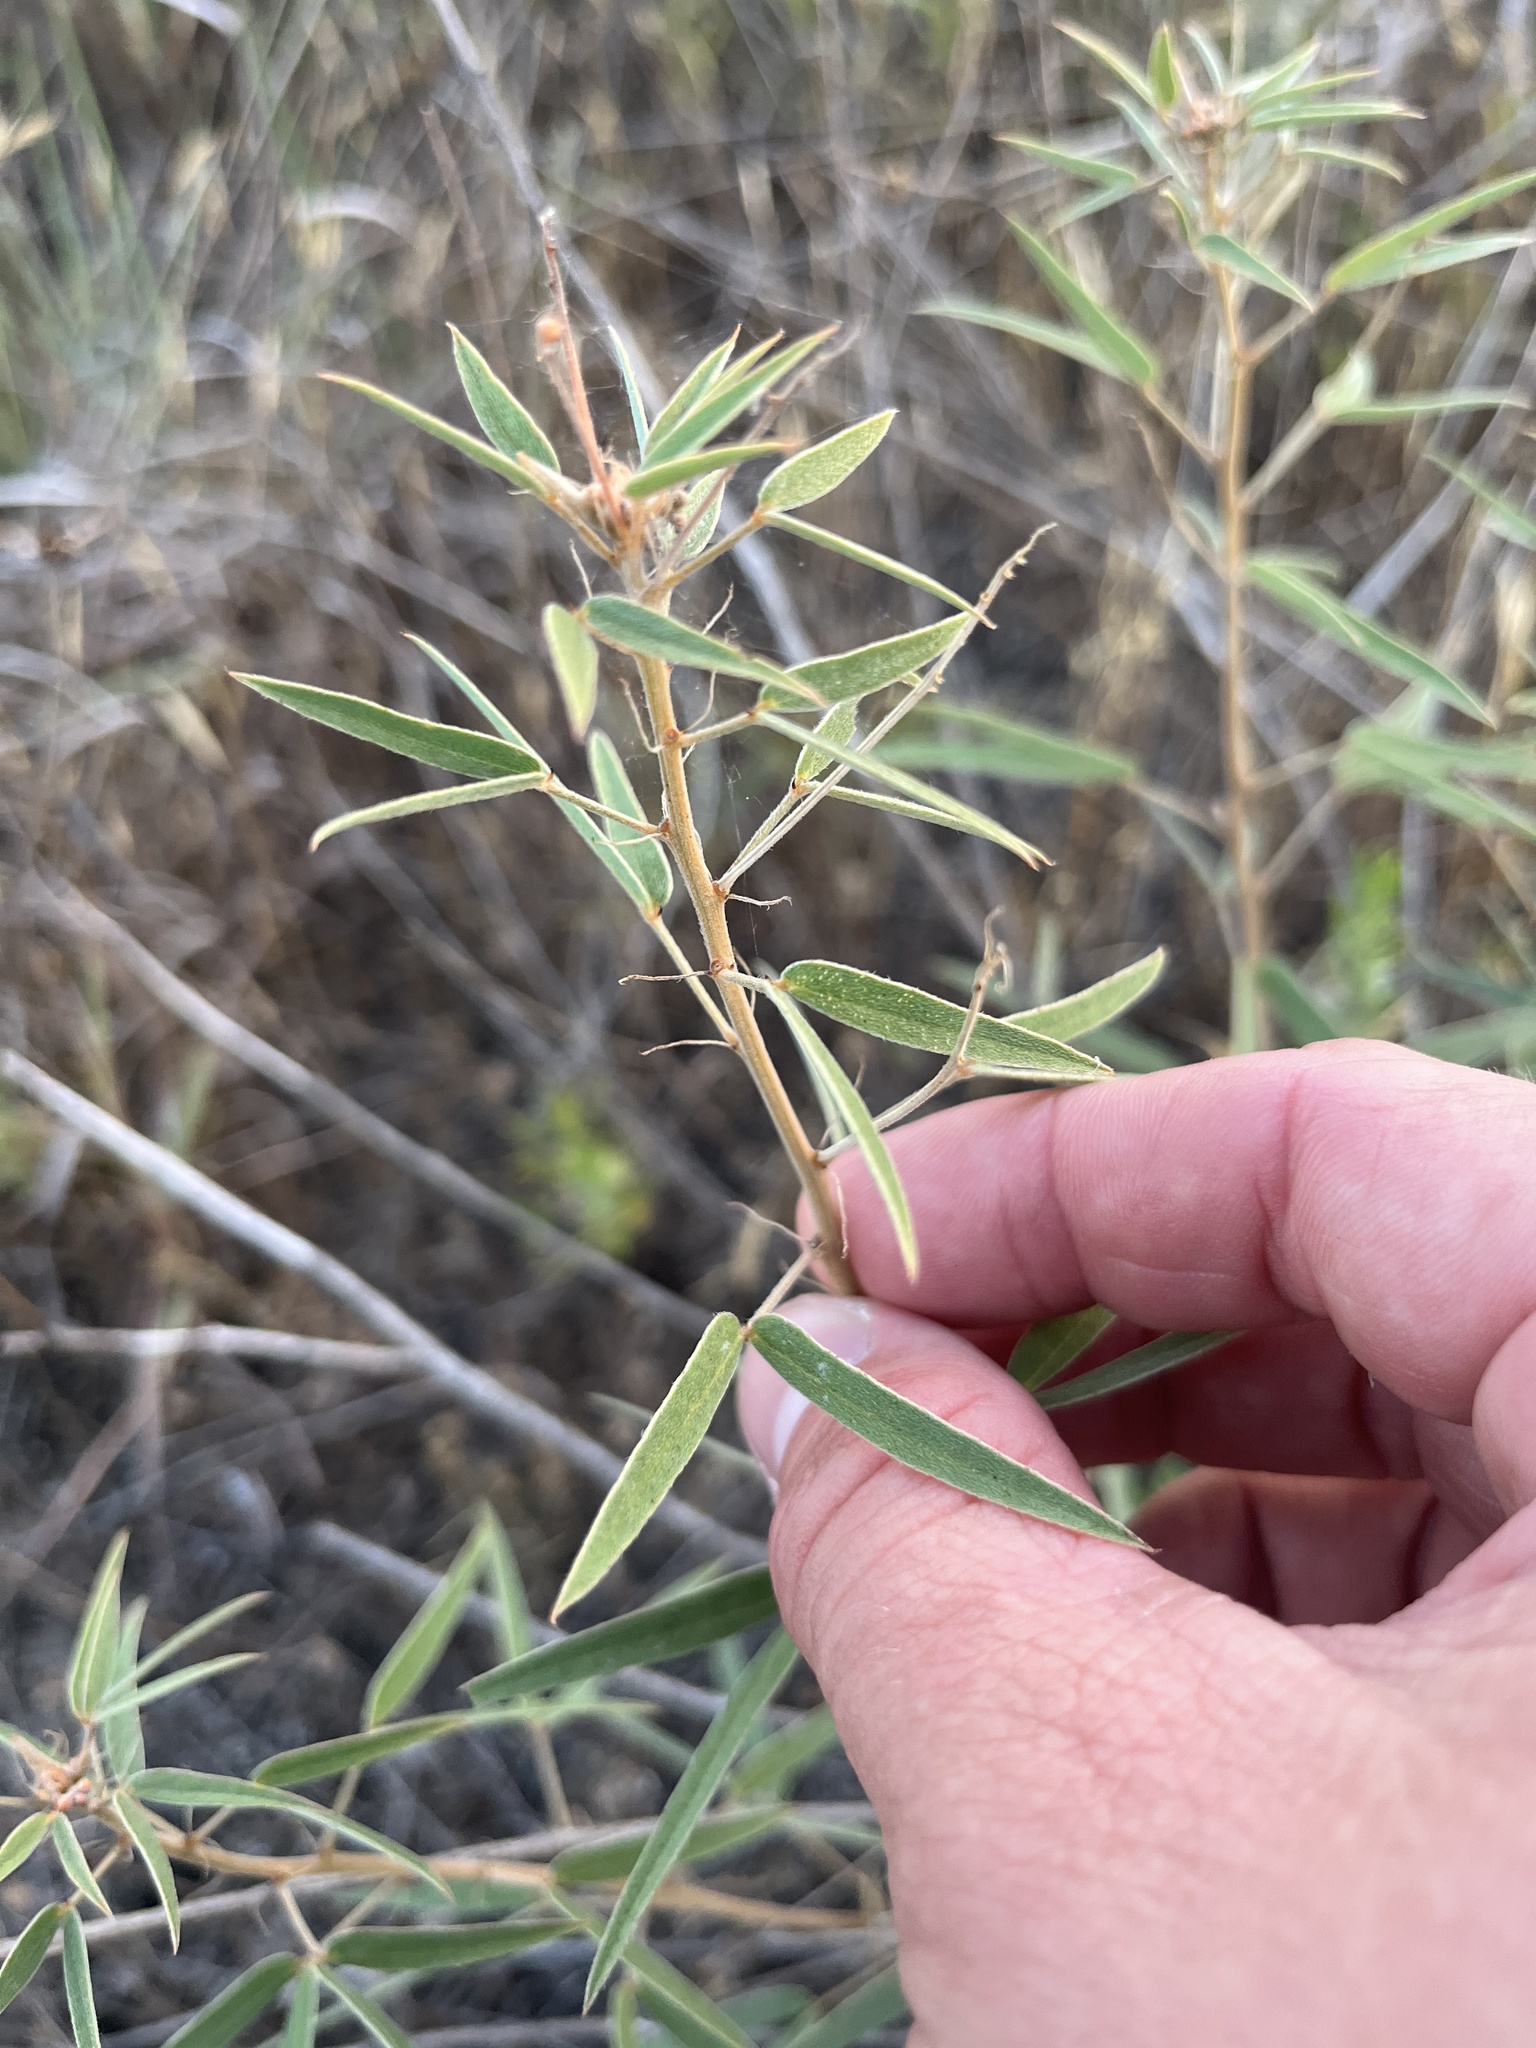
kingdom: Plantae
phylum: Tracheophyta
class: Magnoliopsida
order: Fabales
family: Fabaceae
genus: Senna
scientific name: Senna roemeriana
